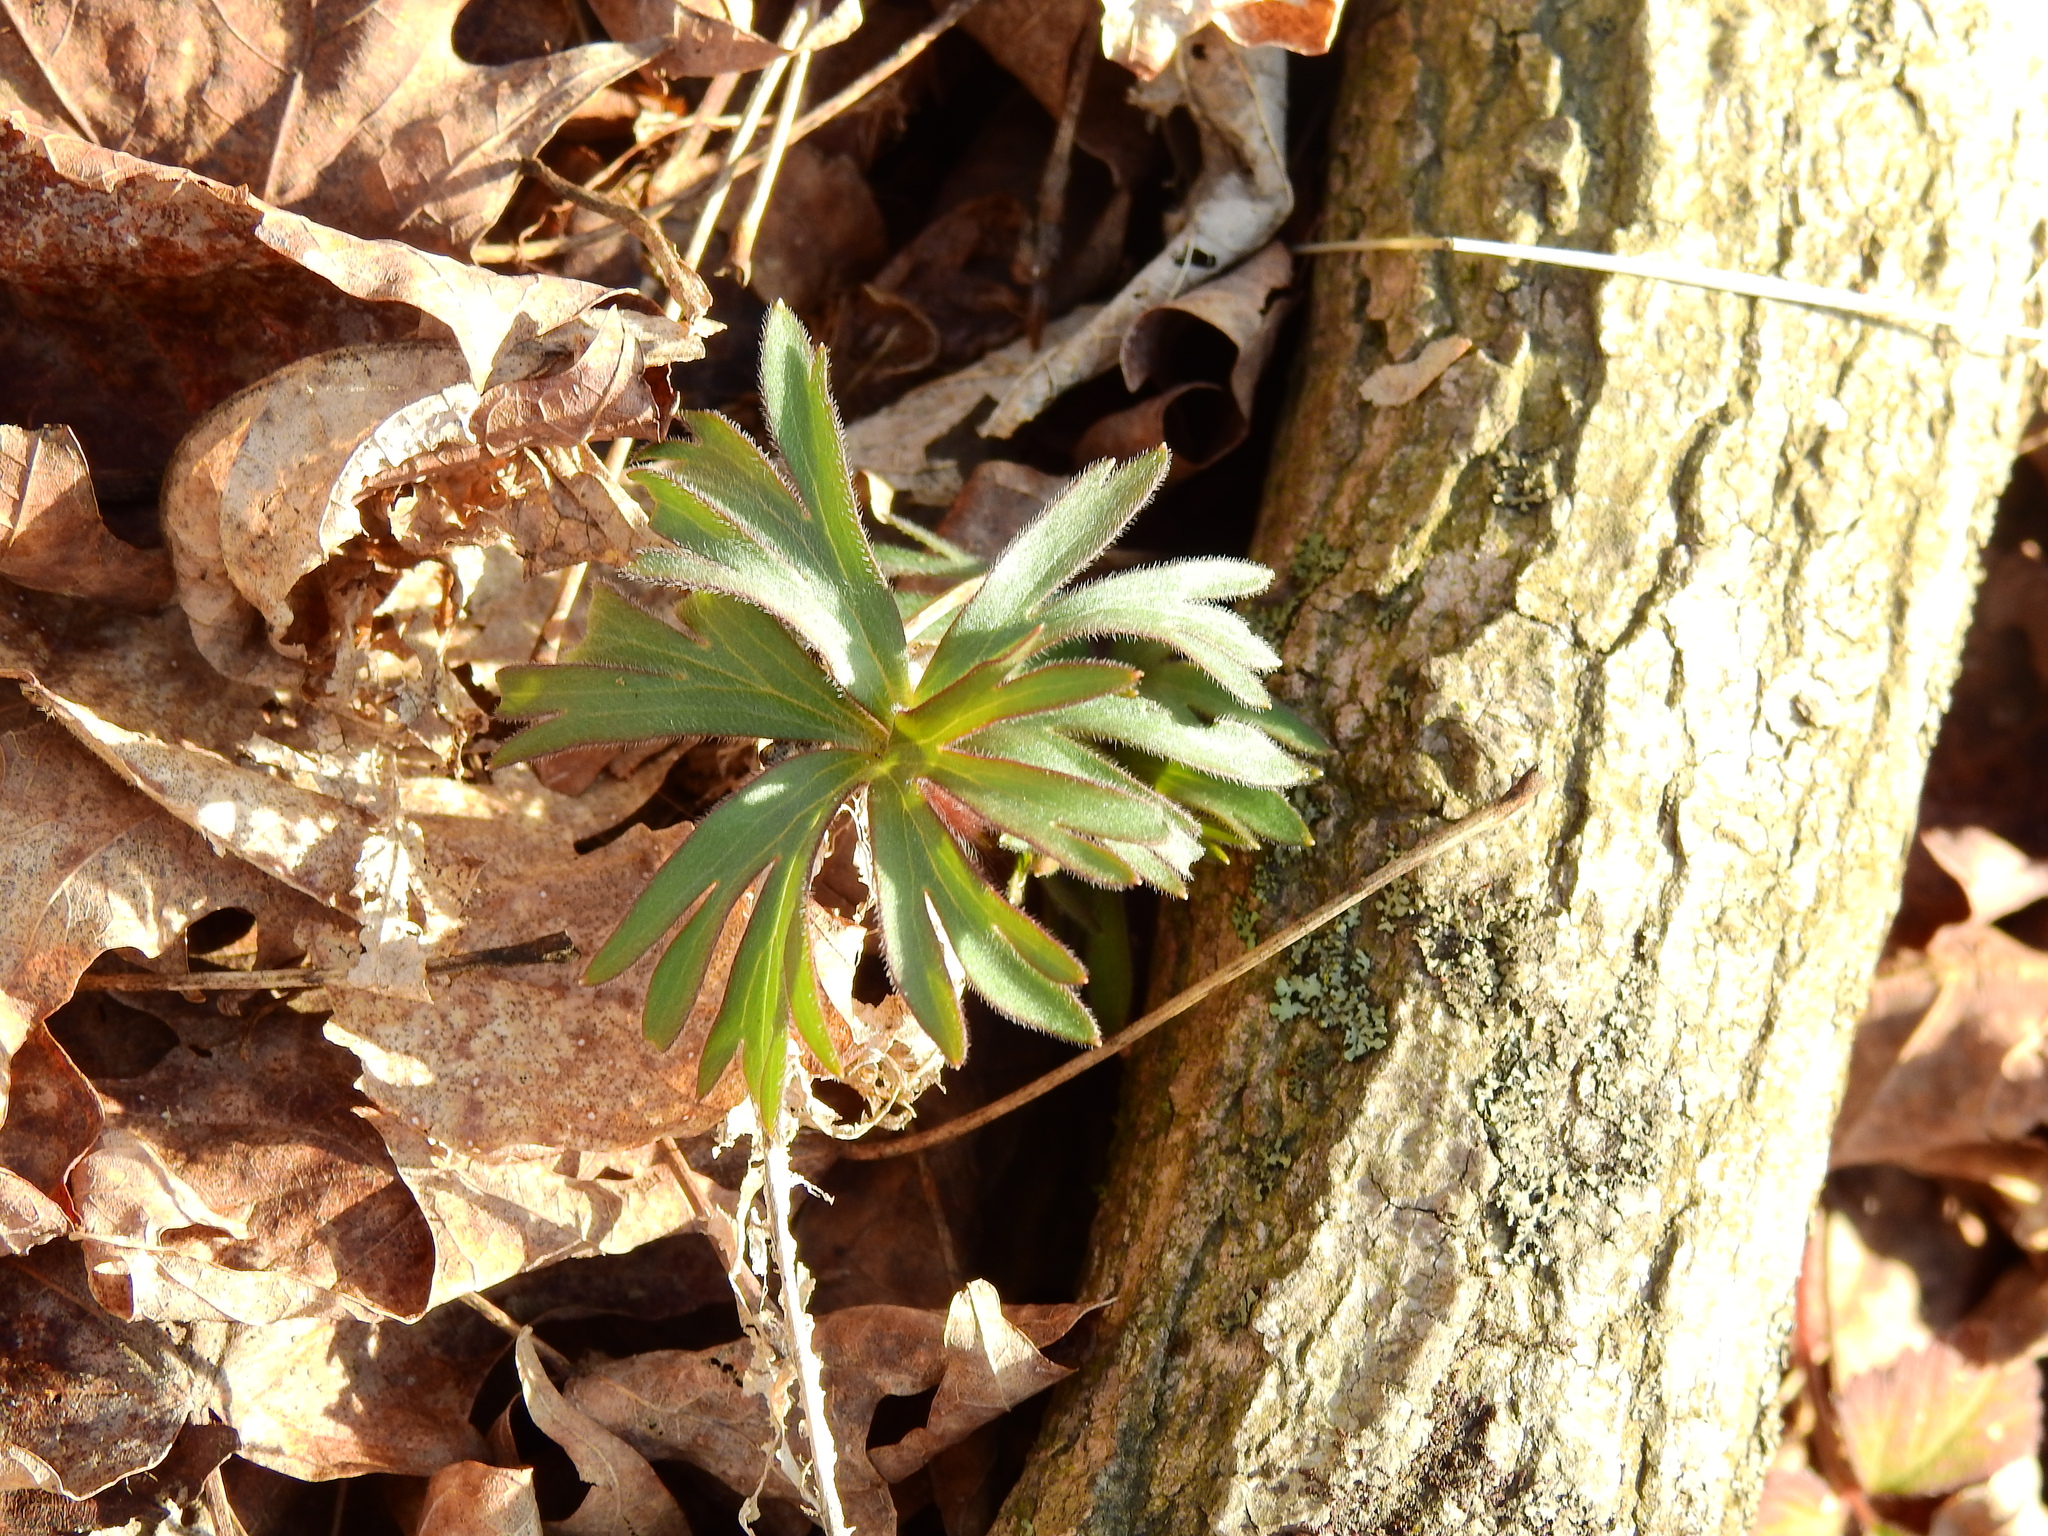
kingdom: Plantae
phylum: Tracheophyta
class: Magnoliopsida
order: Ranunculales
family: Ranunculaceae
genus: Eranthis
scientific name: Eranthis hyemalis
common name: Winter aconite
